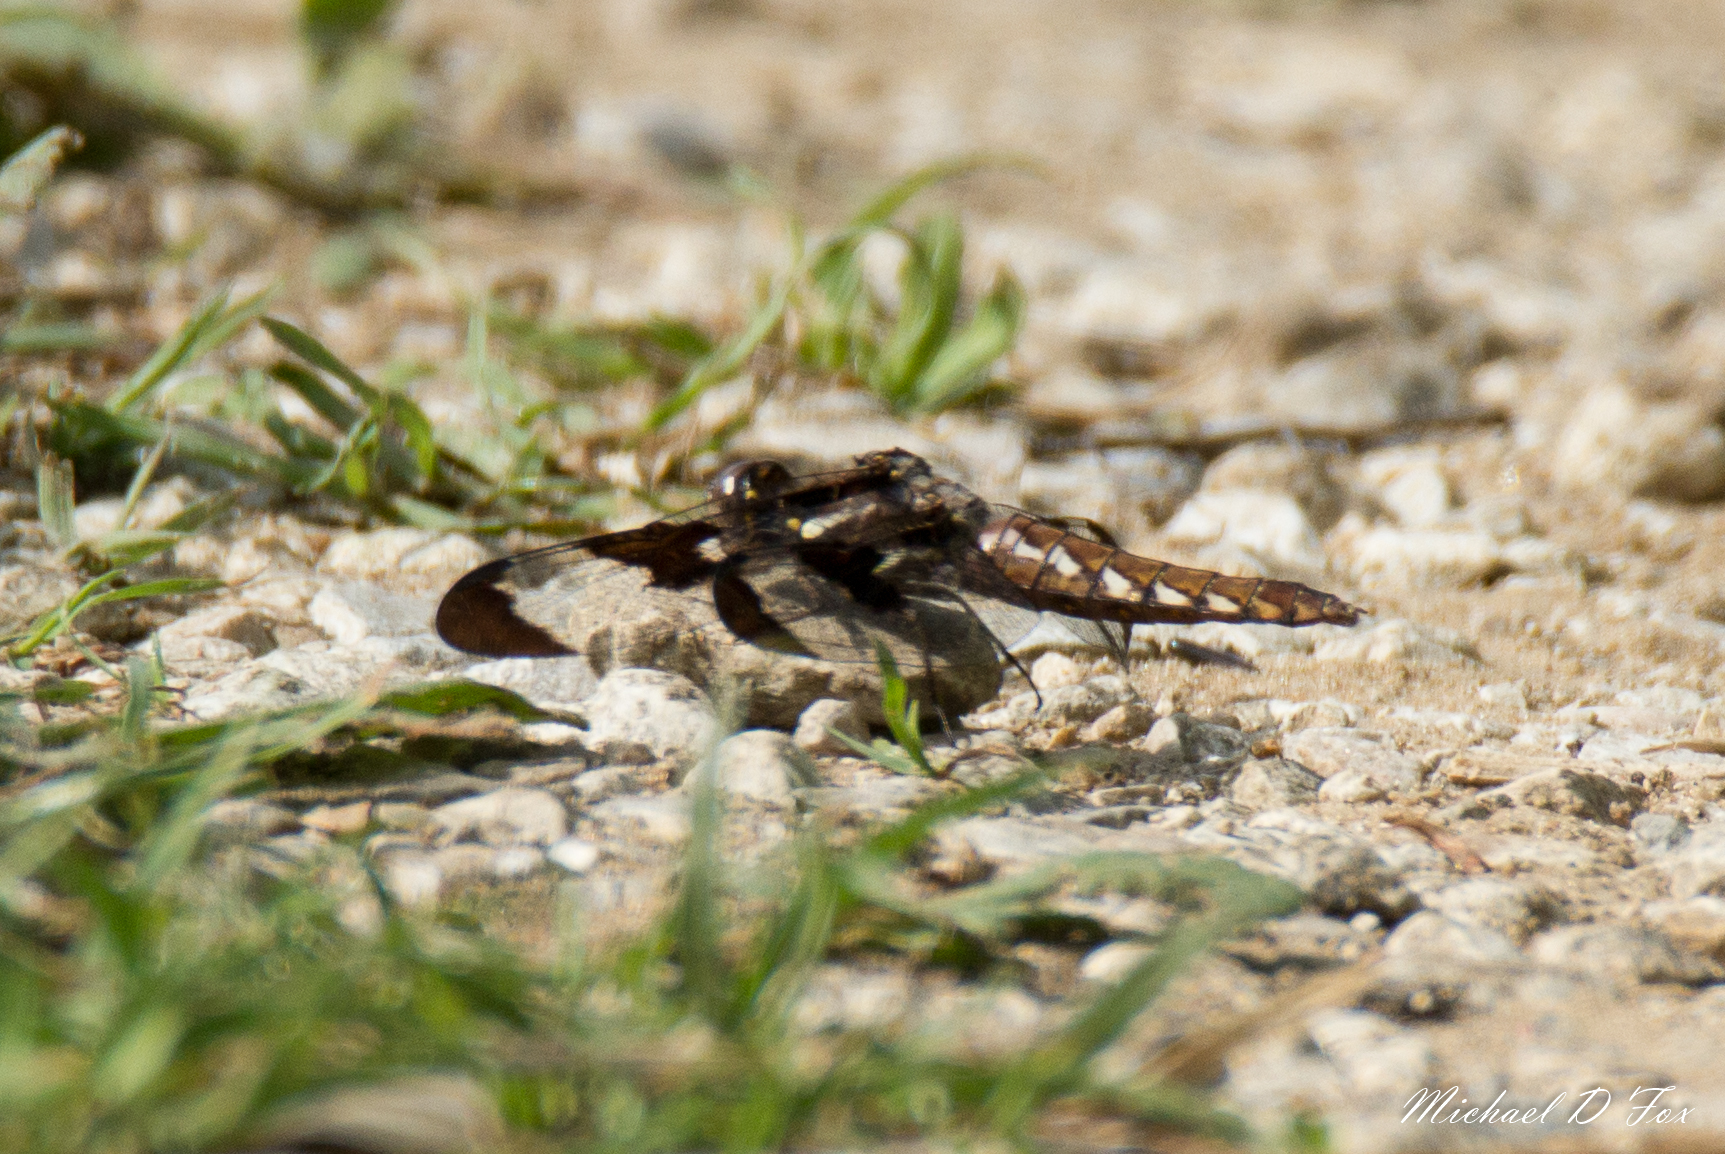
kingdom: Animalia
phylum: Arthropoda
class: Insecta
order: Odonata
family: Libellulidae
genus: Plathemis
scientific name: Plathemis lydia
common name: Common whitetail
